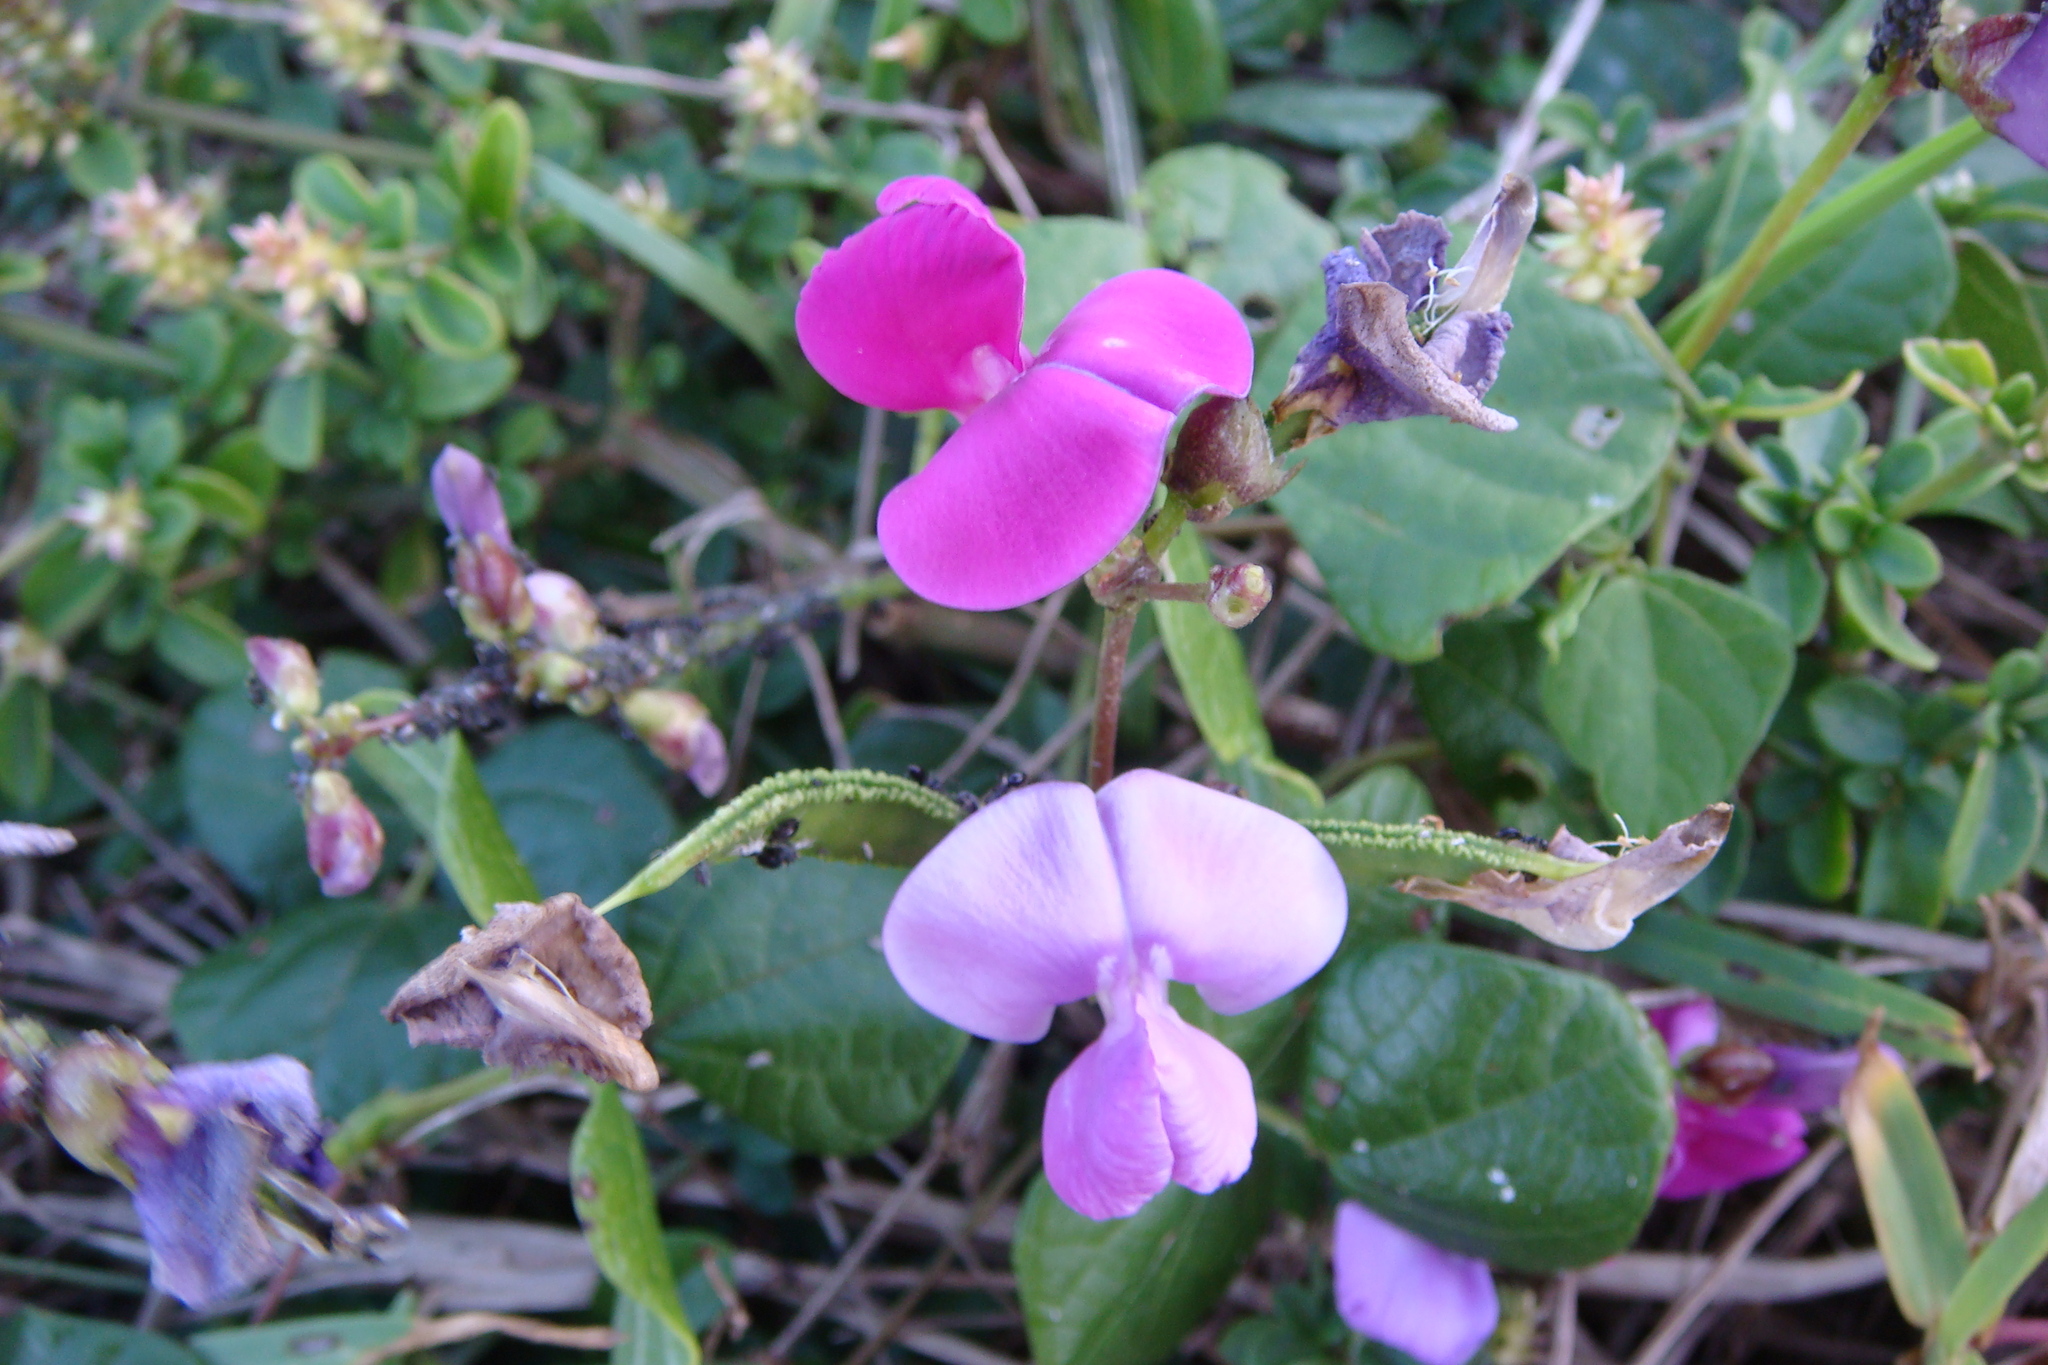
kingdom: Plantae
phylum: Tracheophyta
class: Magnoliopsida
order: Fabales
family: Fabaceae
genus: Lablab
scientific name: Lablab purpureus
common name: Lablab-bean
